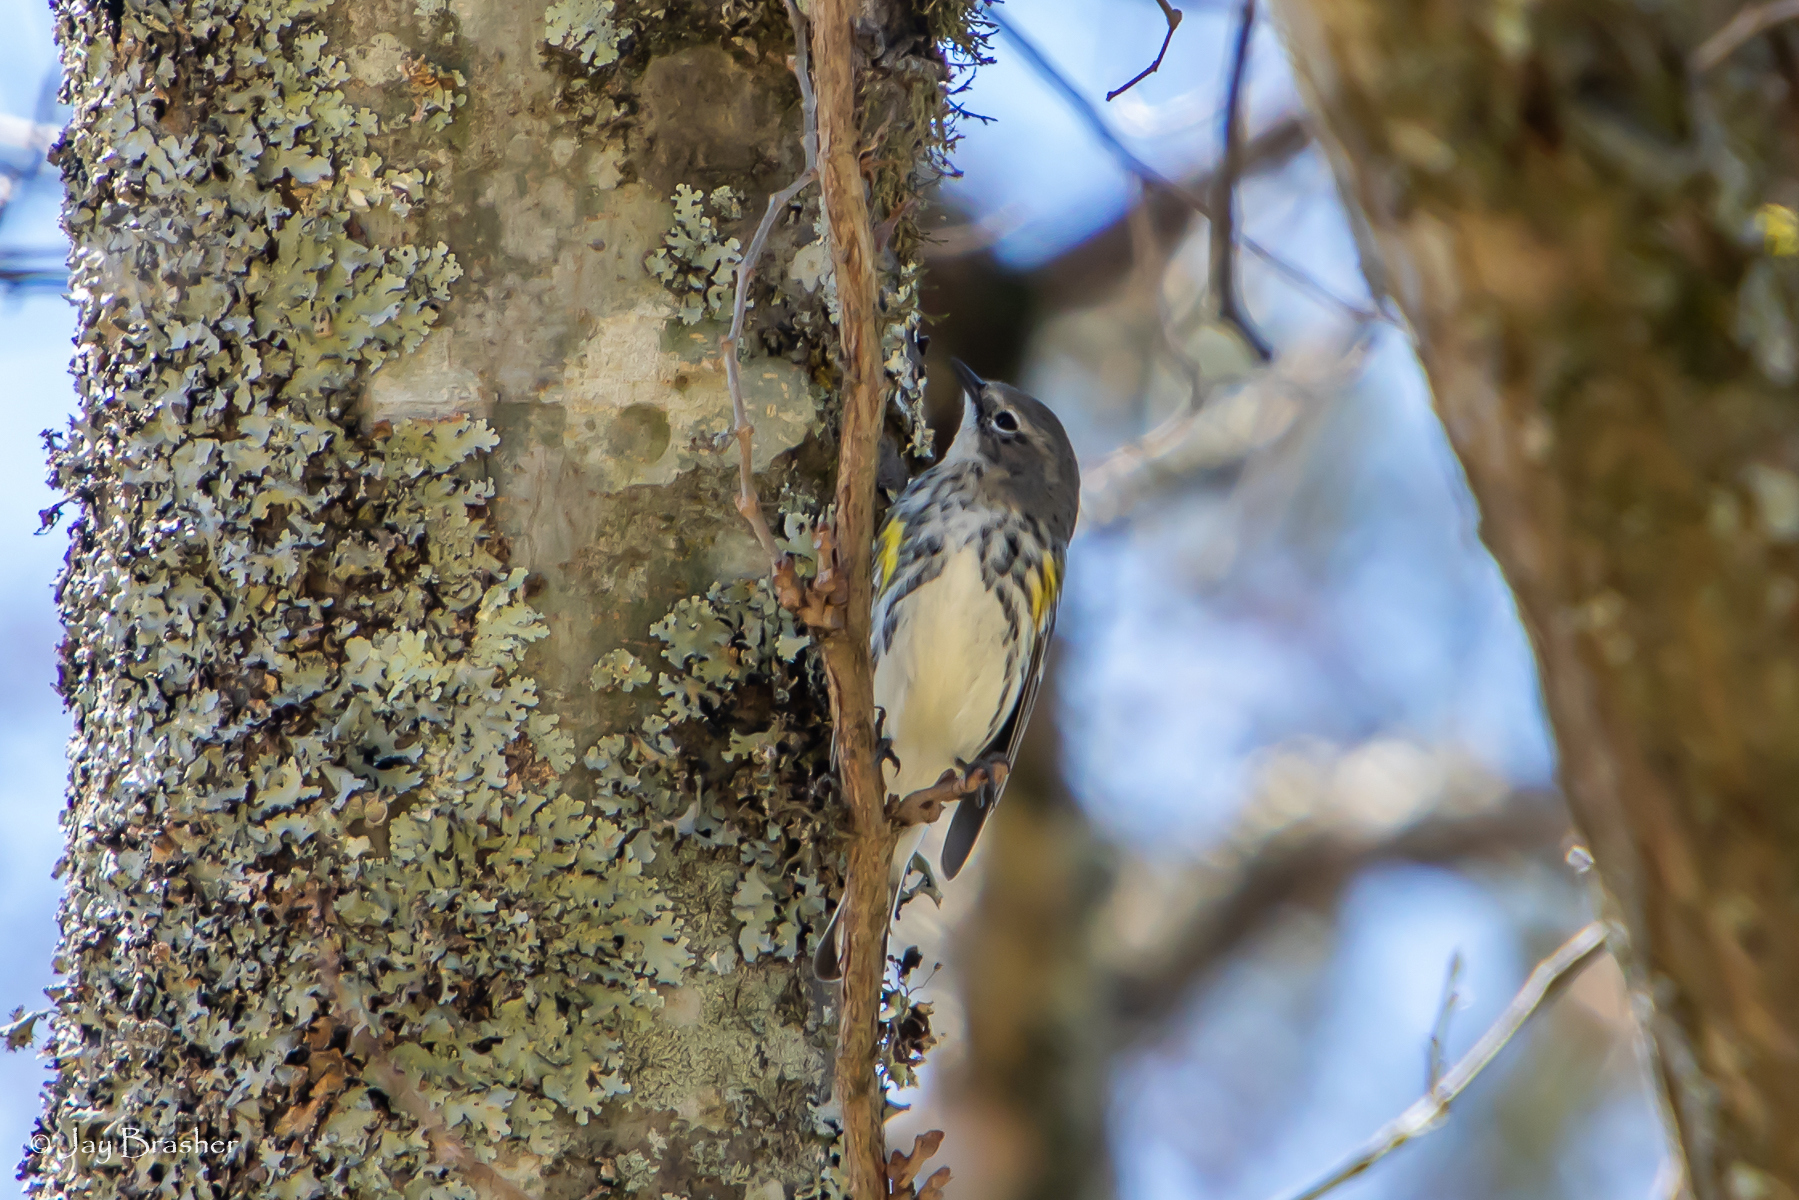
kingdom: Animalia
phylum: Chordata
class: Aves
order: Passeriformes
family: Parulidae
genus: Setophaga
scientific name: Setophaga coronata
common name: Myrtle warbler
